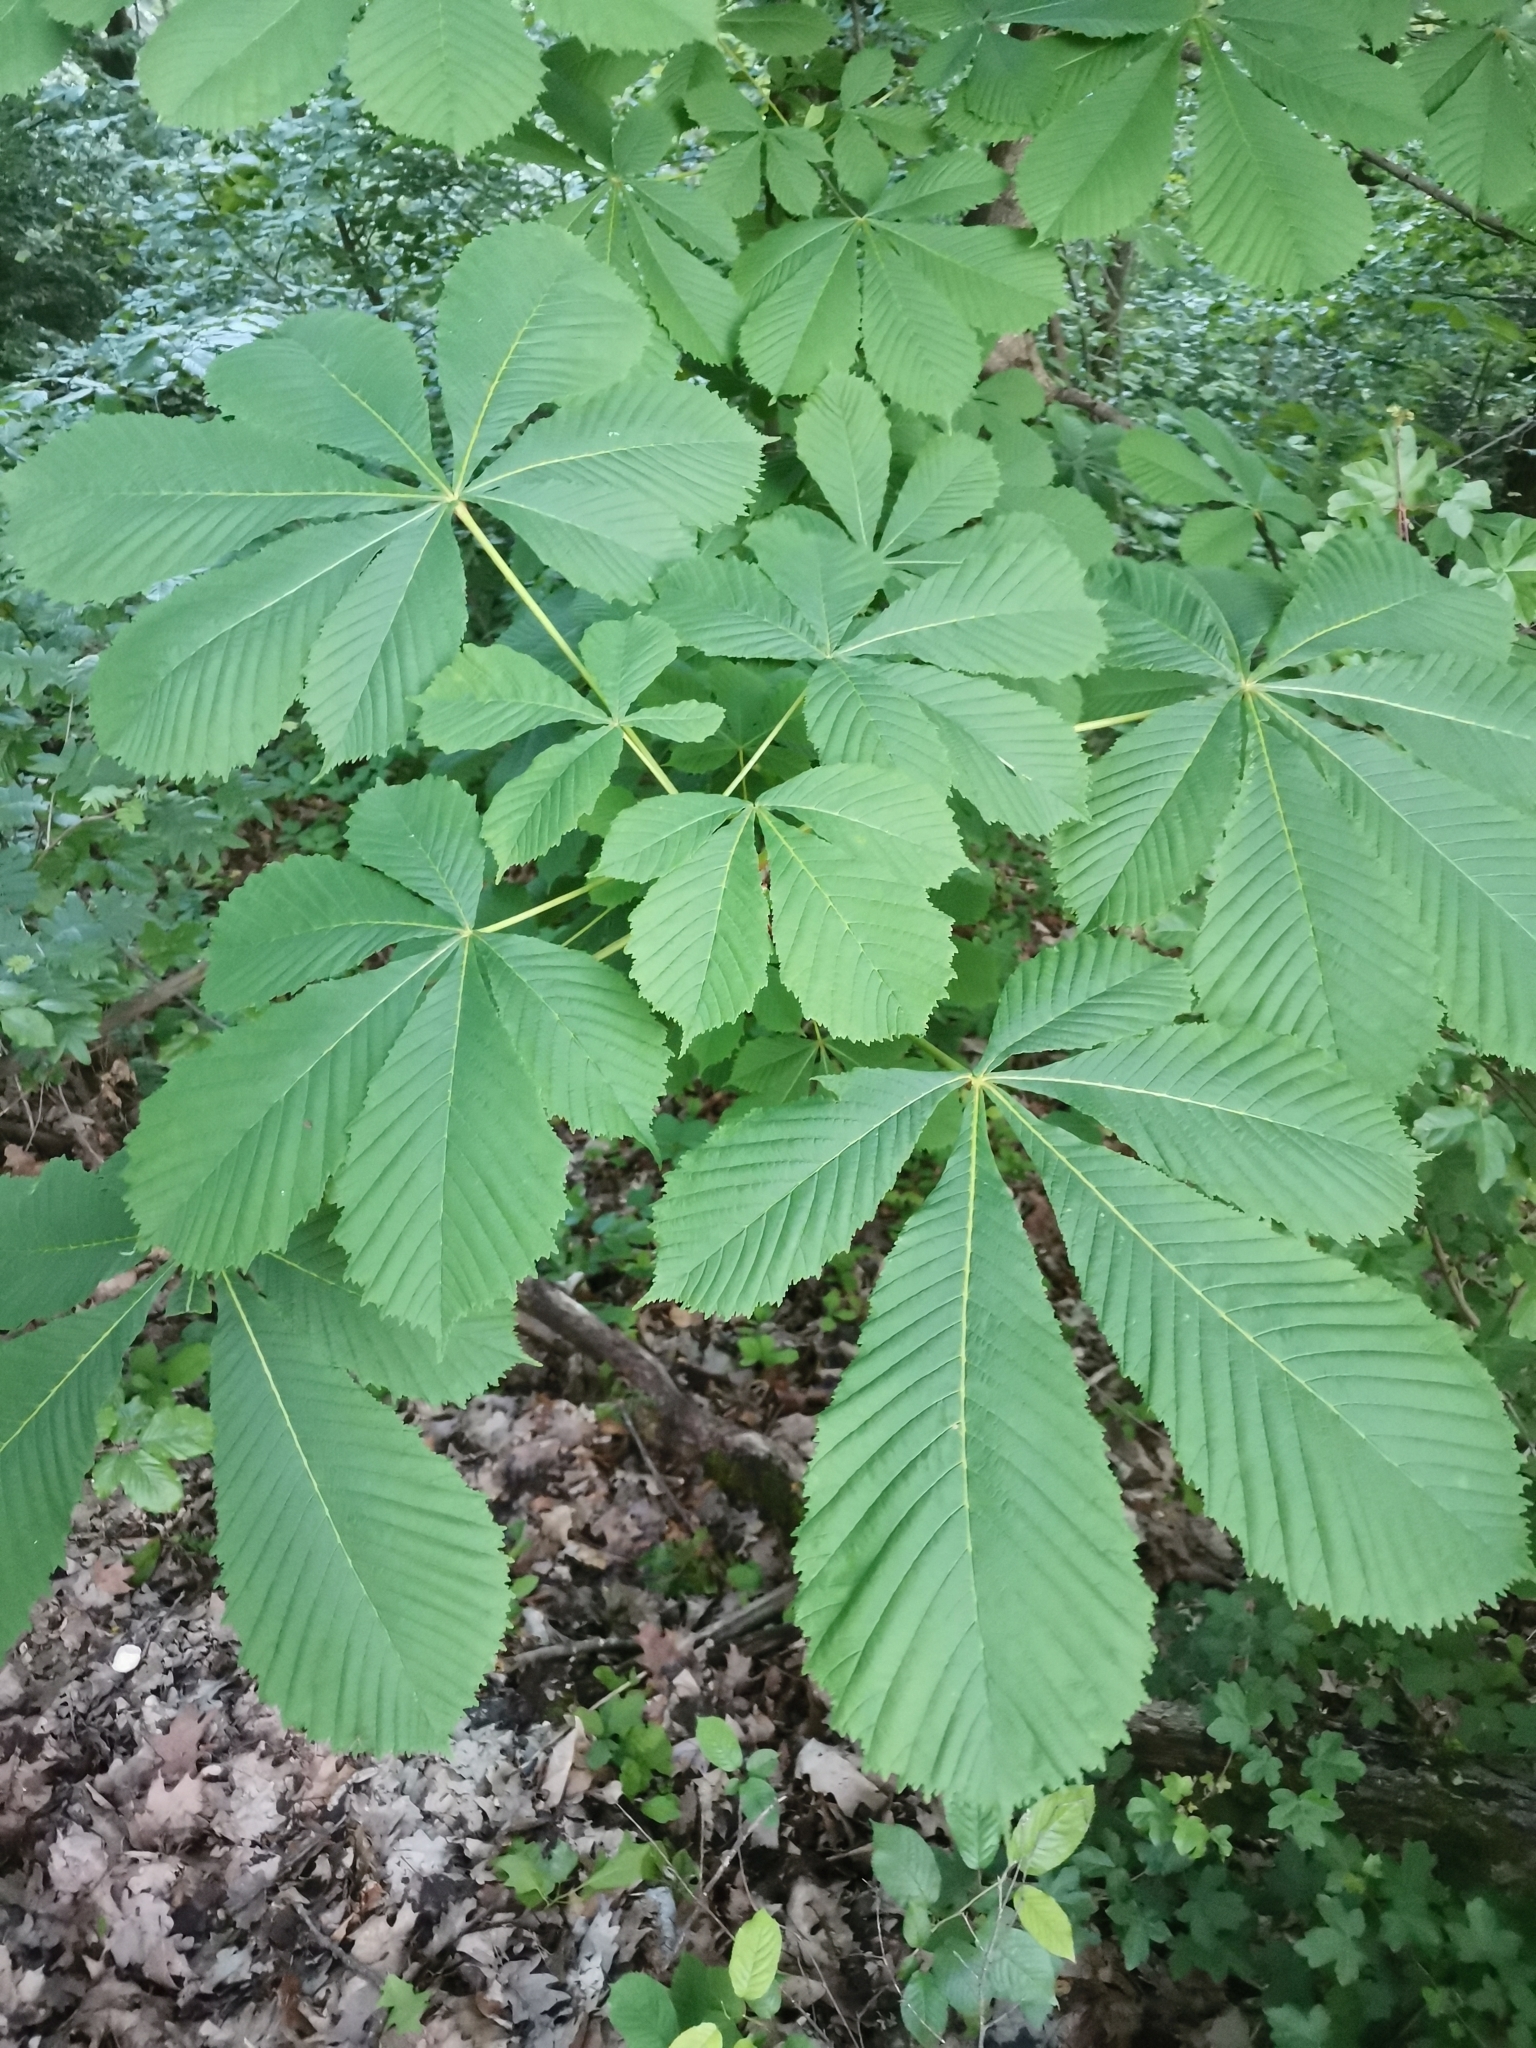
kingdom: Plantae
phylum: Tracheophyta
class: Magnoliopsida
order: Sapindales
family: Sapindaceae
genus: Aesculus
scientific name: Aesculus hippocastanum
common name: Horse-chestnut
